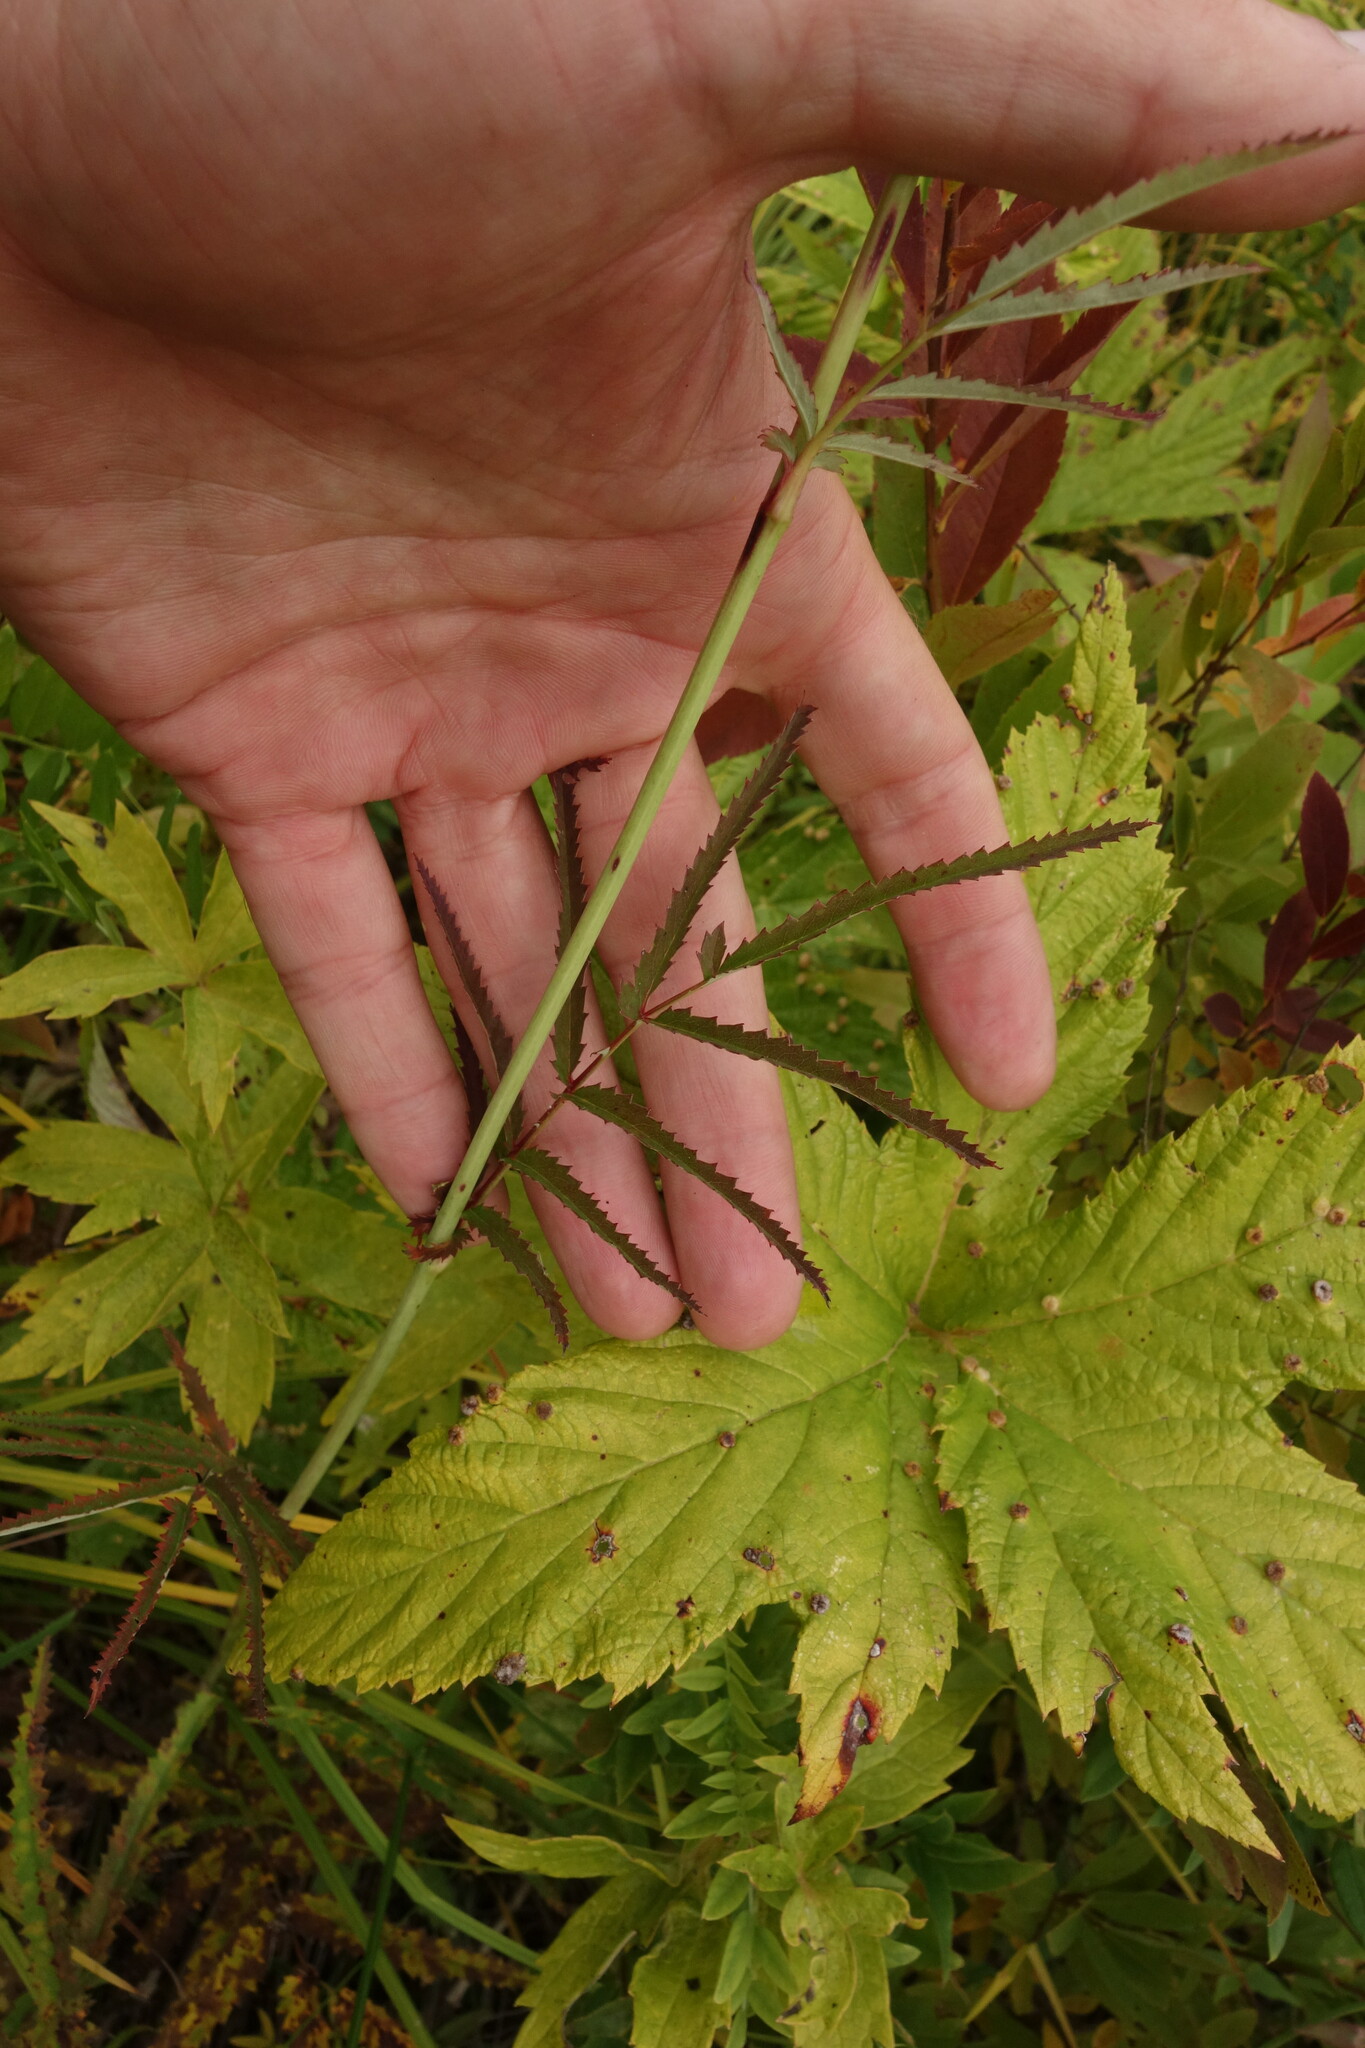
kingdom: Plantae
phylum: Tracheophyta
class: Magnoliopsida
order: Rosales
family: Rosaceae
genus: Poterium
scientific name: Poterium tenuifolium
